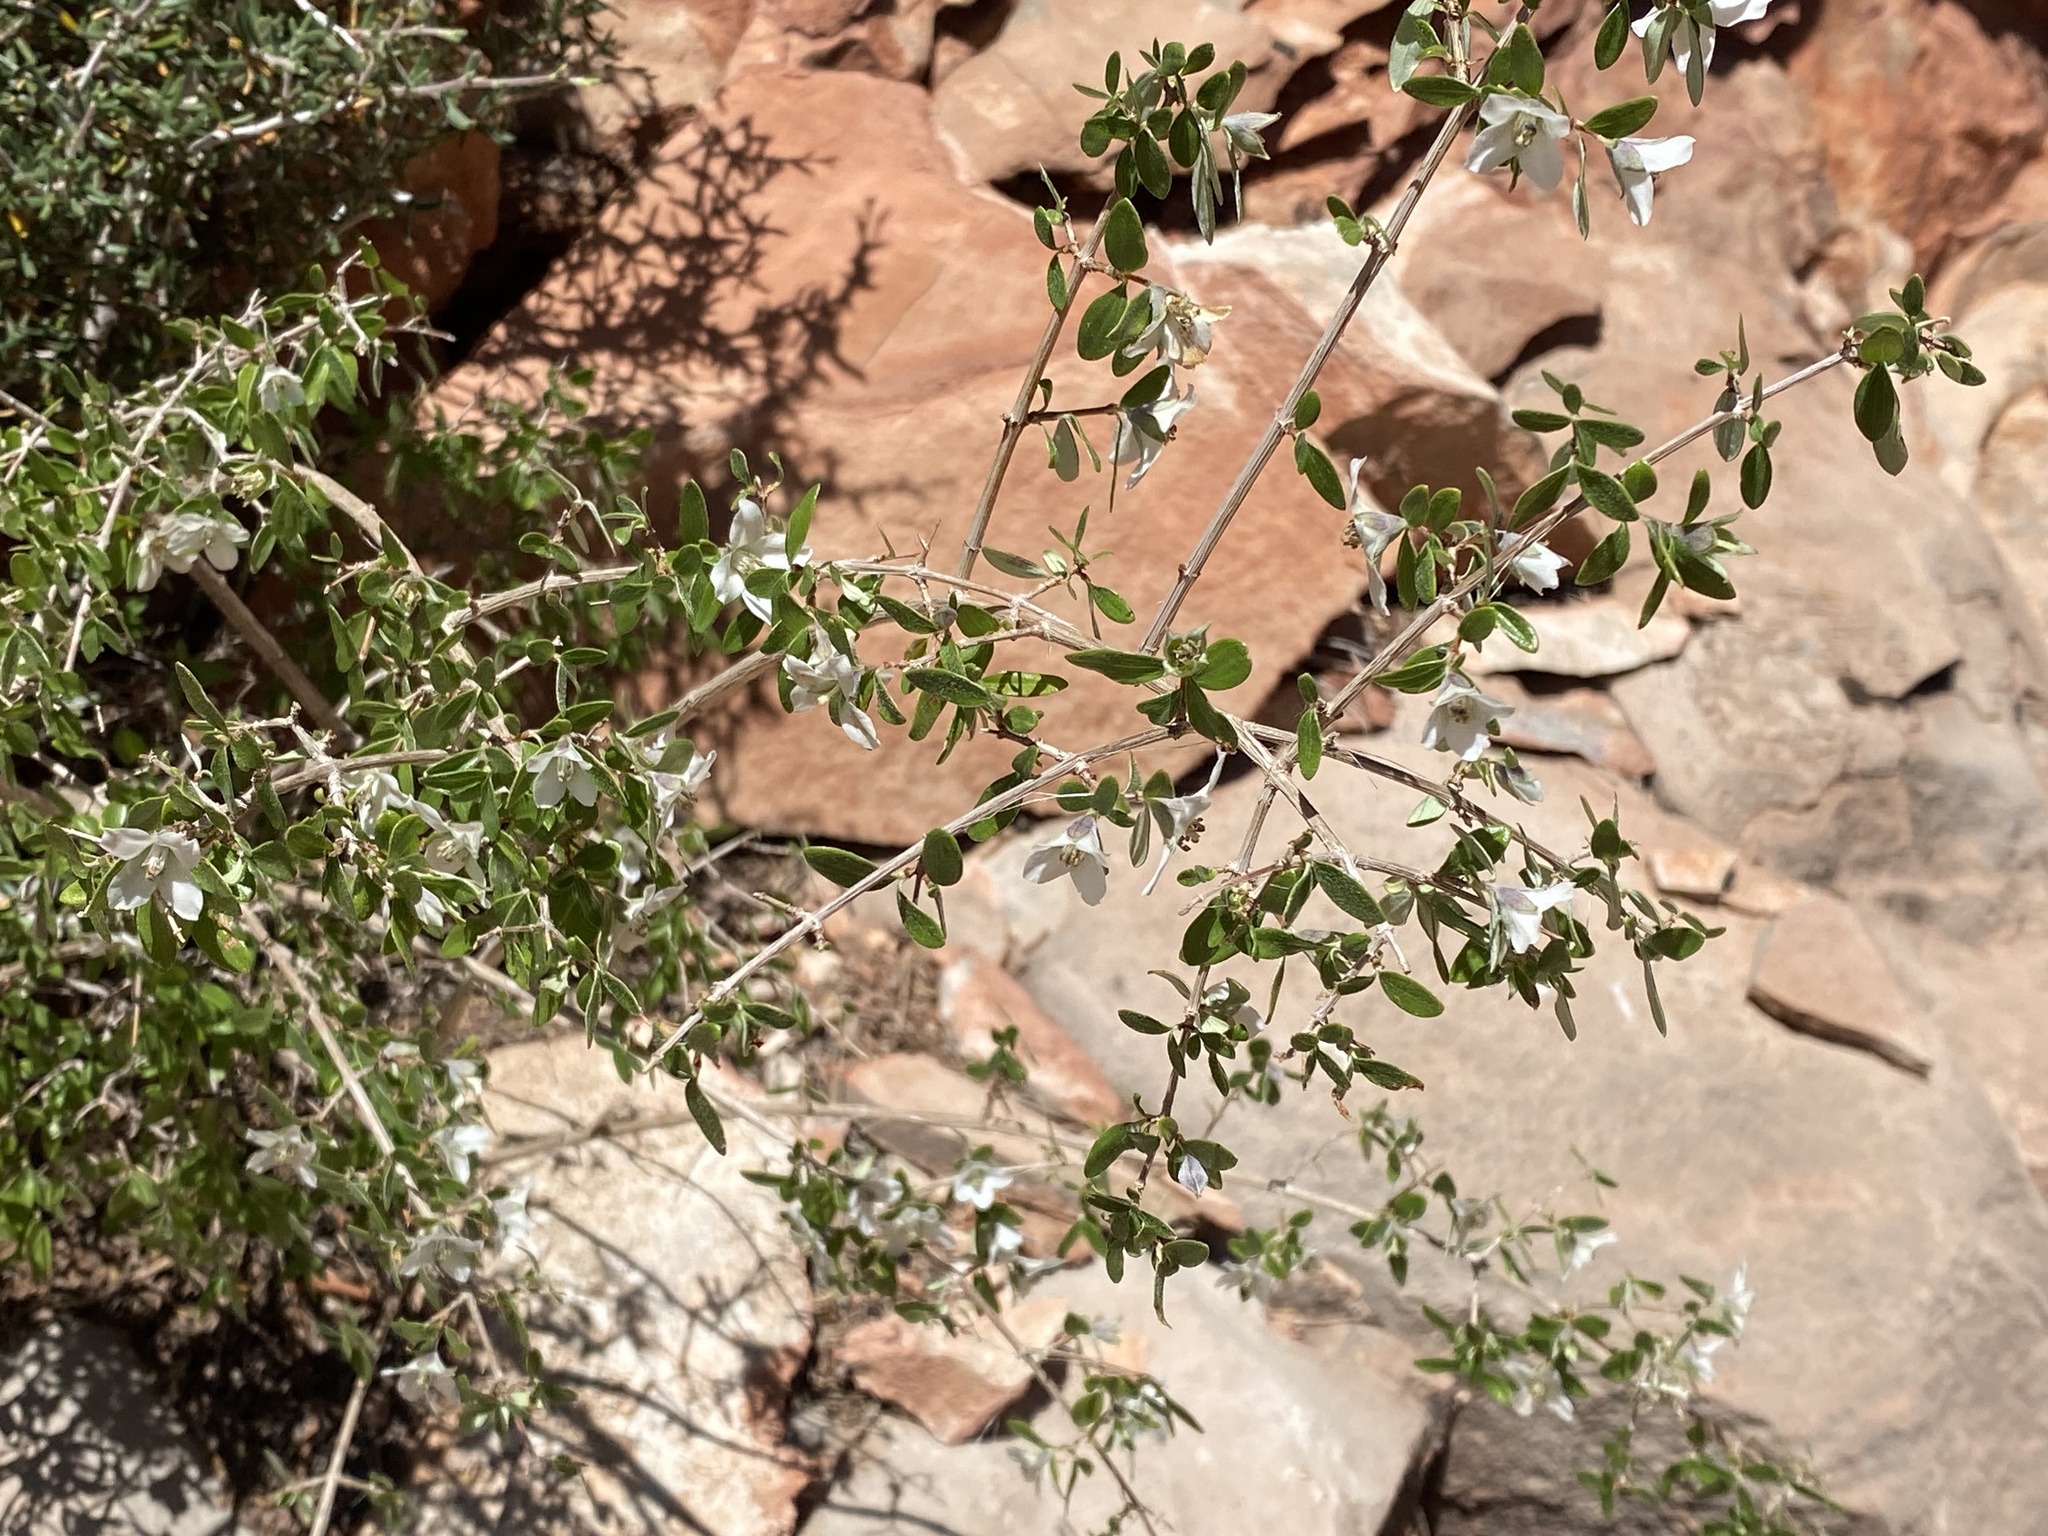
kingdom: Plantae
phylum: Tracheophyta
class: Magnoliopsida
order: Cornales
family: Hydrangeaceae
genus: Philadelphus
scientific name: Philadelphus microphyllus
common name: Desert mock orange
